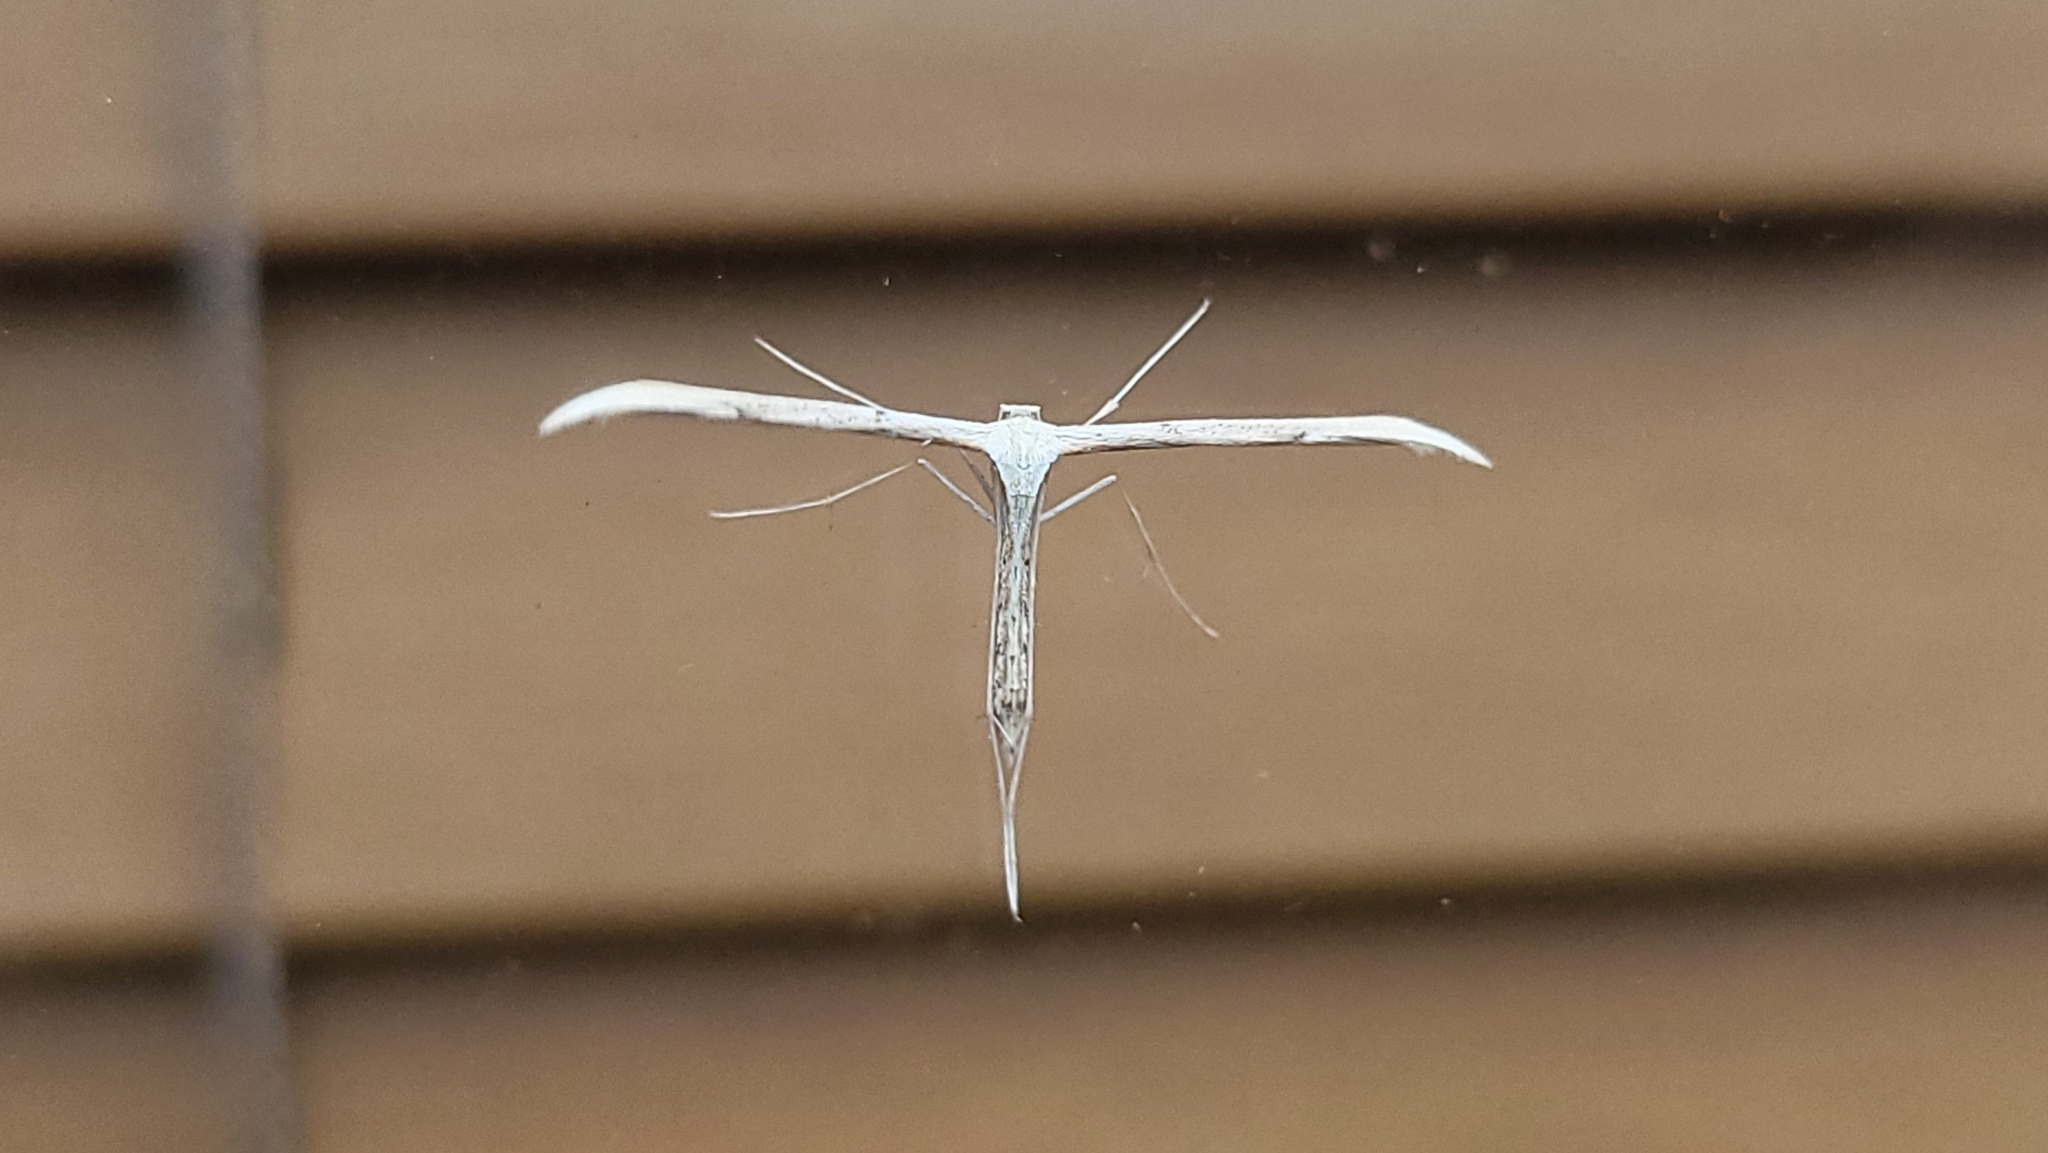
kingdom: Animalia
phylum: Arthropoda
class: Insecta
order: Lepidoptera
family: Pterophoridae
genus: Emmelina
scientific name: Emmelina monodactyla
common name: Common plume
